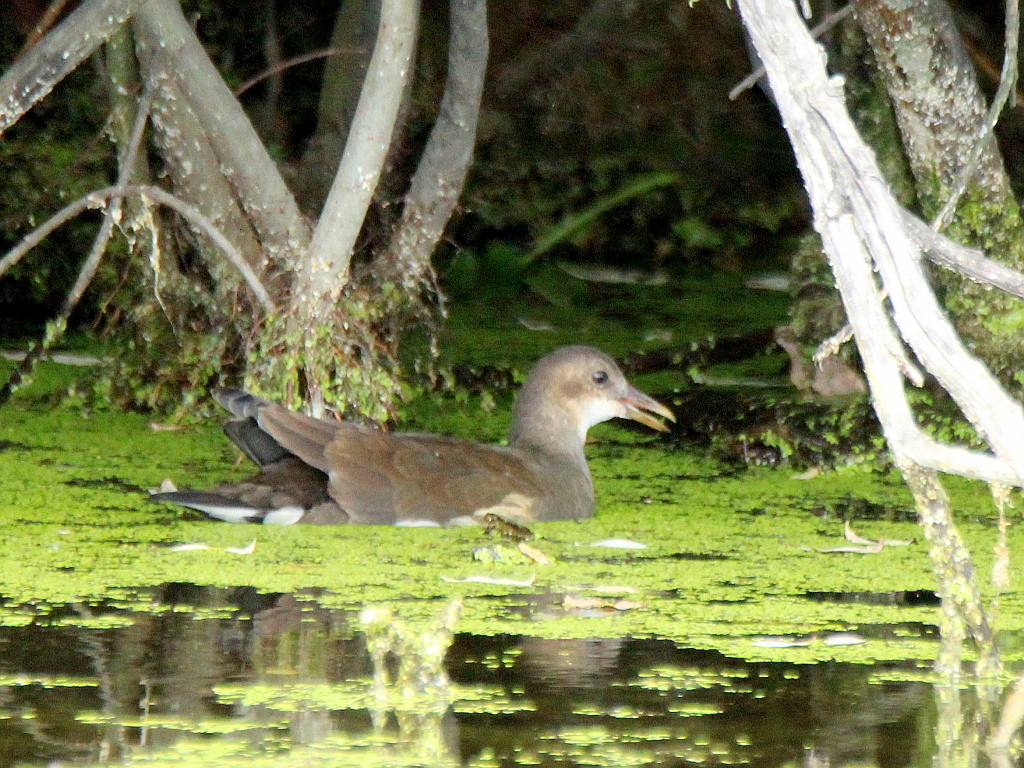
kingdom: Animalia
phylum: Chordata
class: Aves
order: Gruiformes
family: Rallidae
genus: Gallinula
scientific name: Gallinula chloropus
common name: Common moorhen
